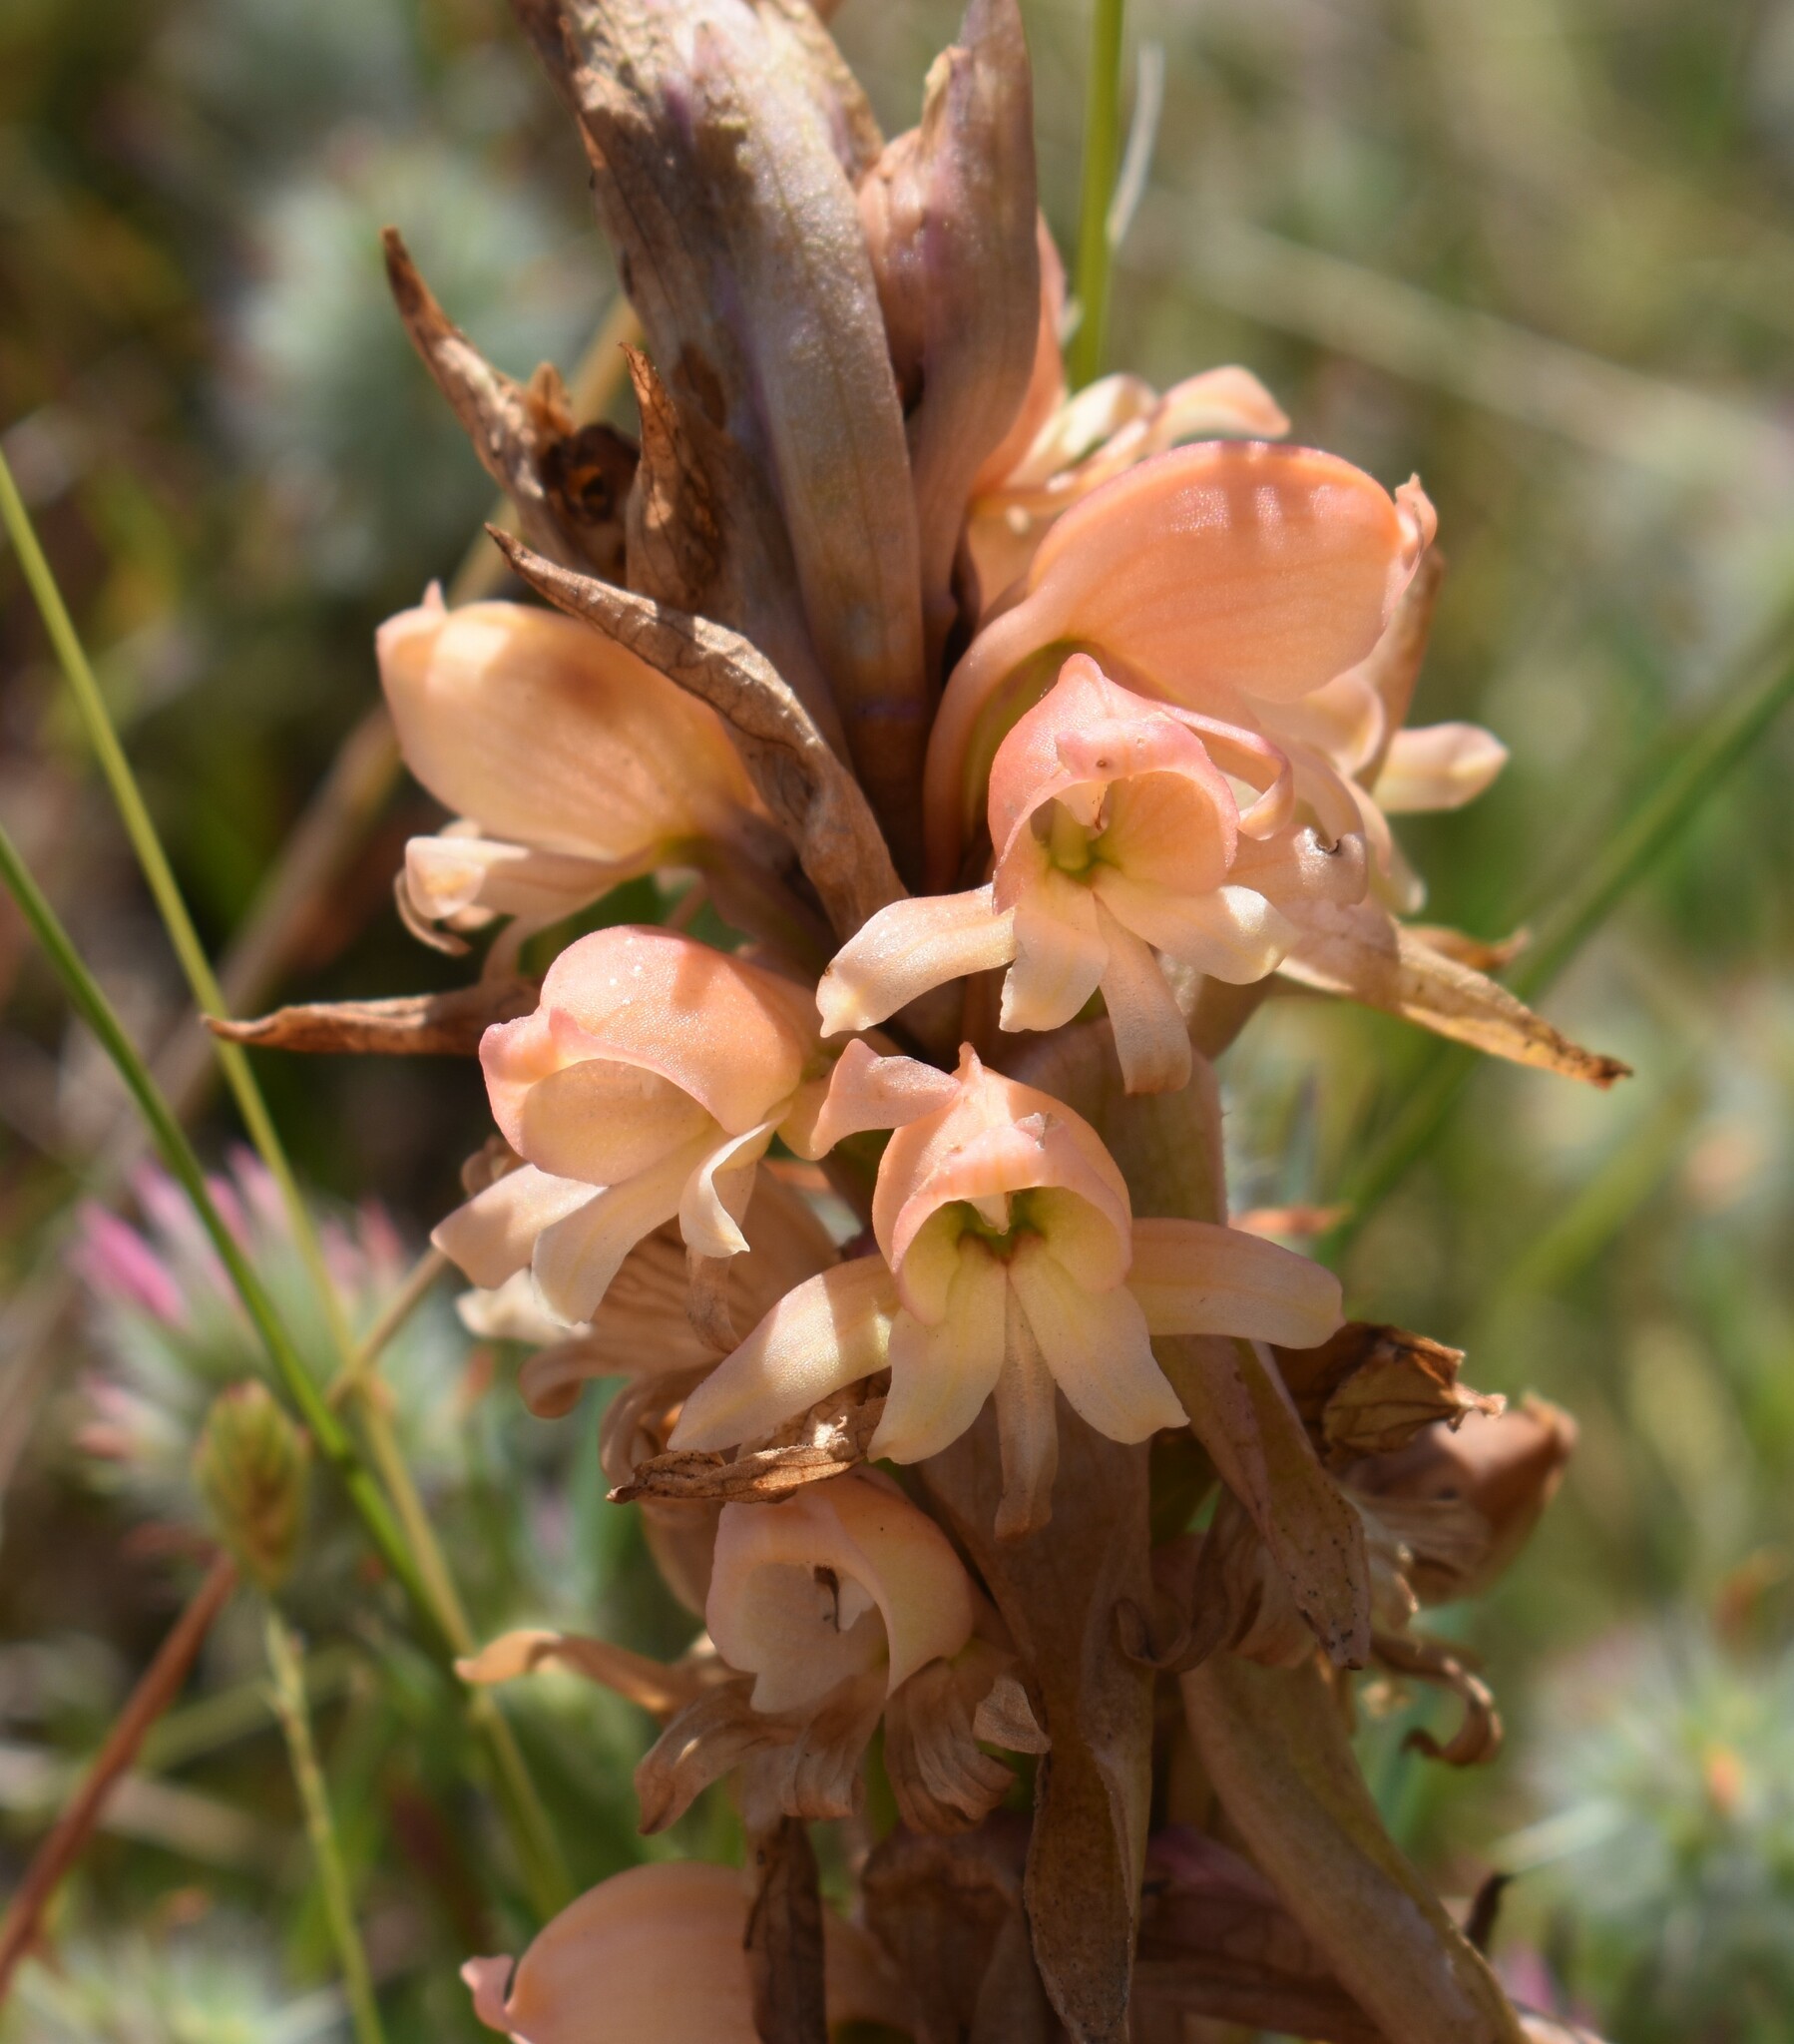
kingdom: Plantae
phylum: Tracheophyta
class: Liliopsida
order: Asparagales
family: Orchidaceae
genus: Satyrium
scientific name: Satyrium
